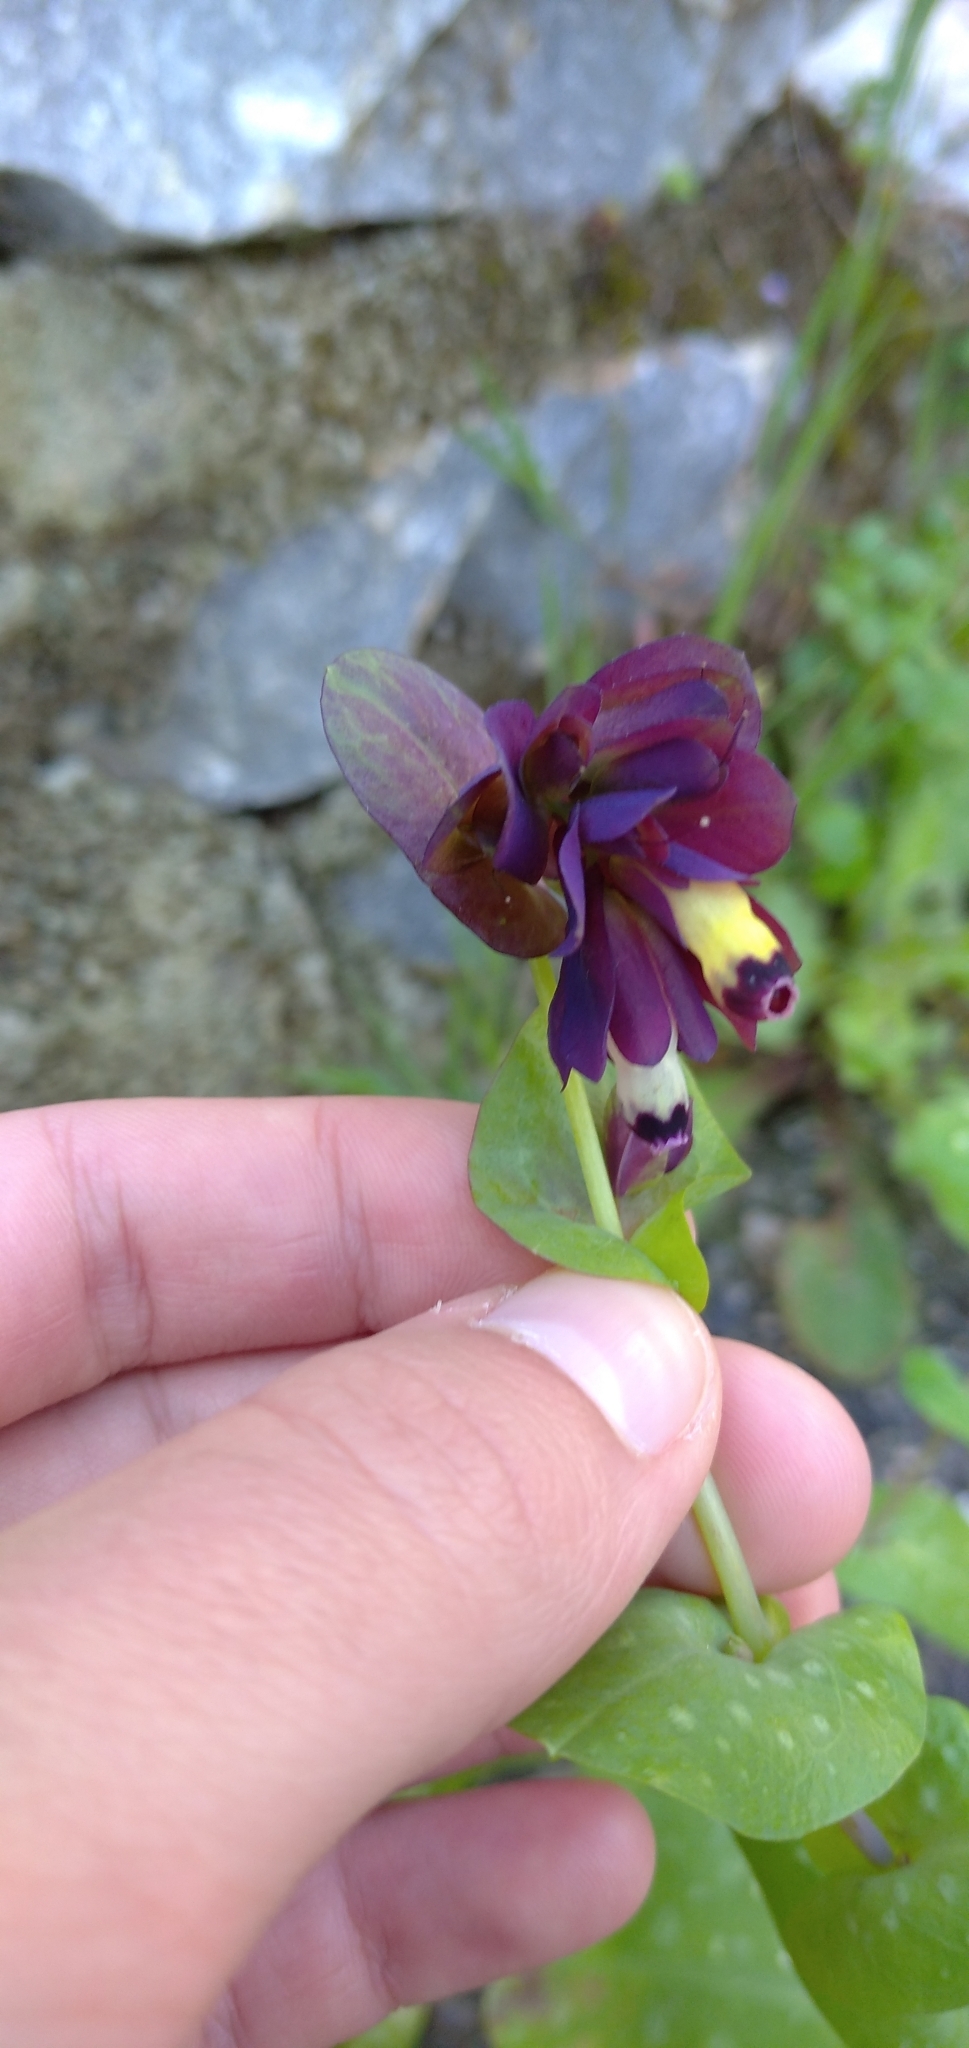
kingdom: Plantae
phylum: Tracheophyta
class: Magnoliopsida
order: Boraginales
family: Boraginaceae
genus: Cerinthe
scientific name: Cerinthe retorta
